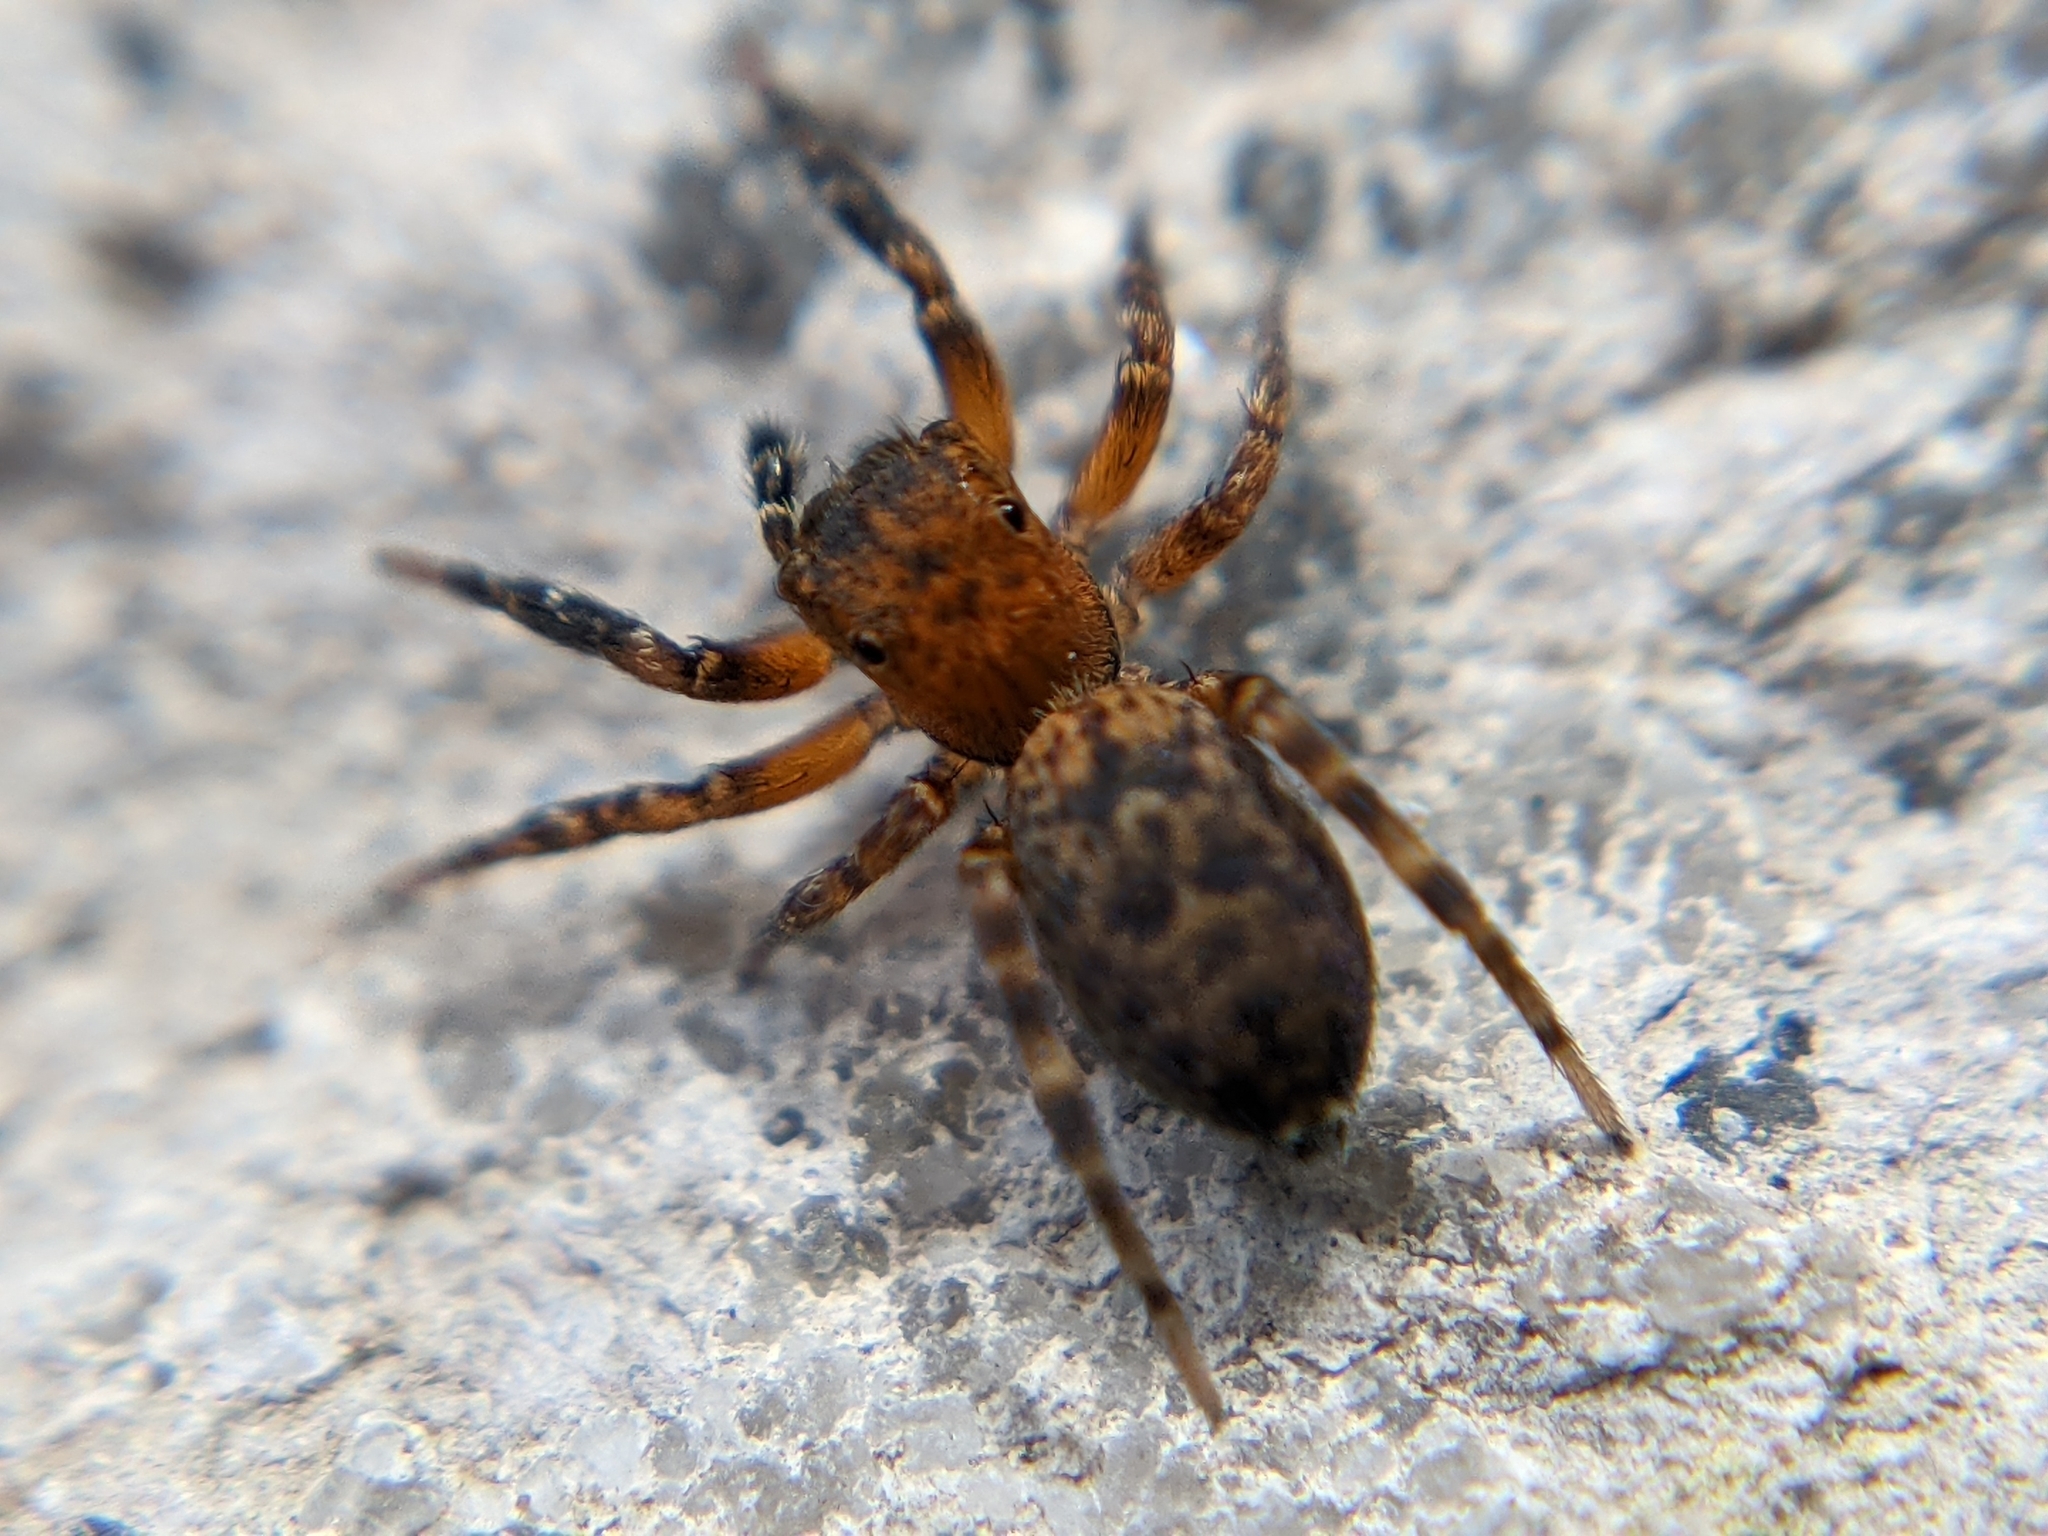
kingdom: Animalia
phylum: Arthropoda
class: Arachnida
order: Araneae
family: Salticidae
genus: Cyrba
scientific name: Cyrba algerina
